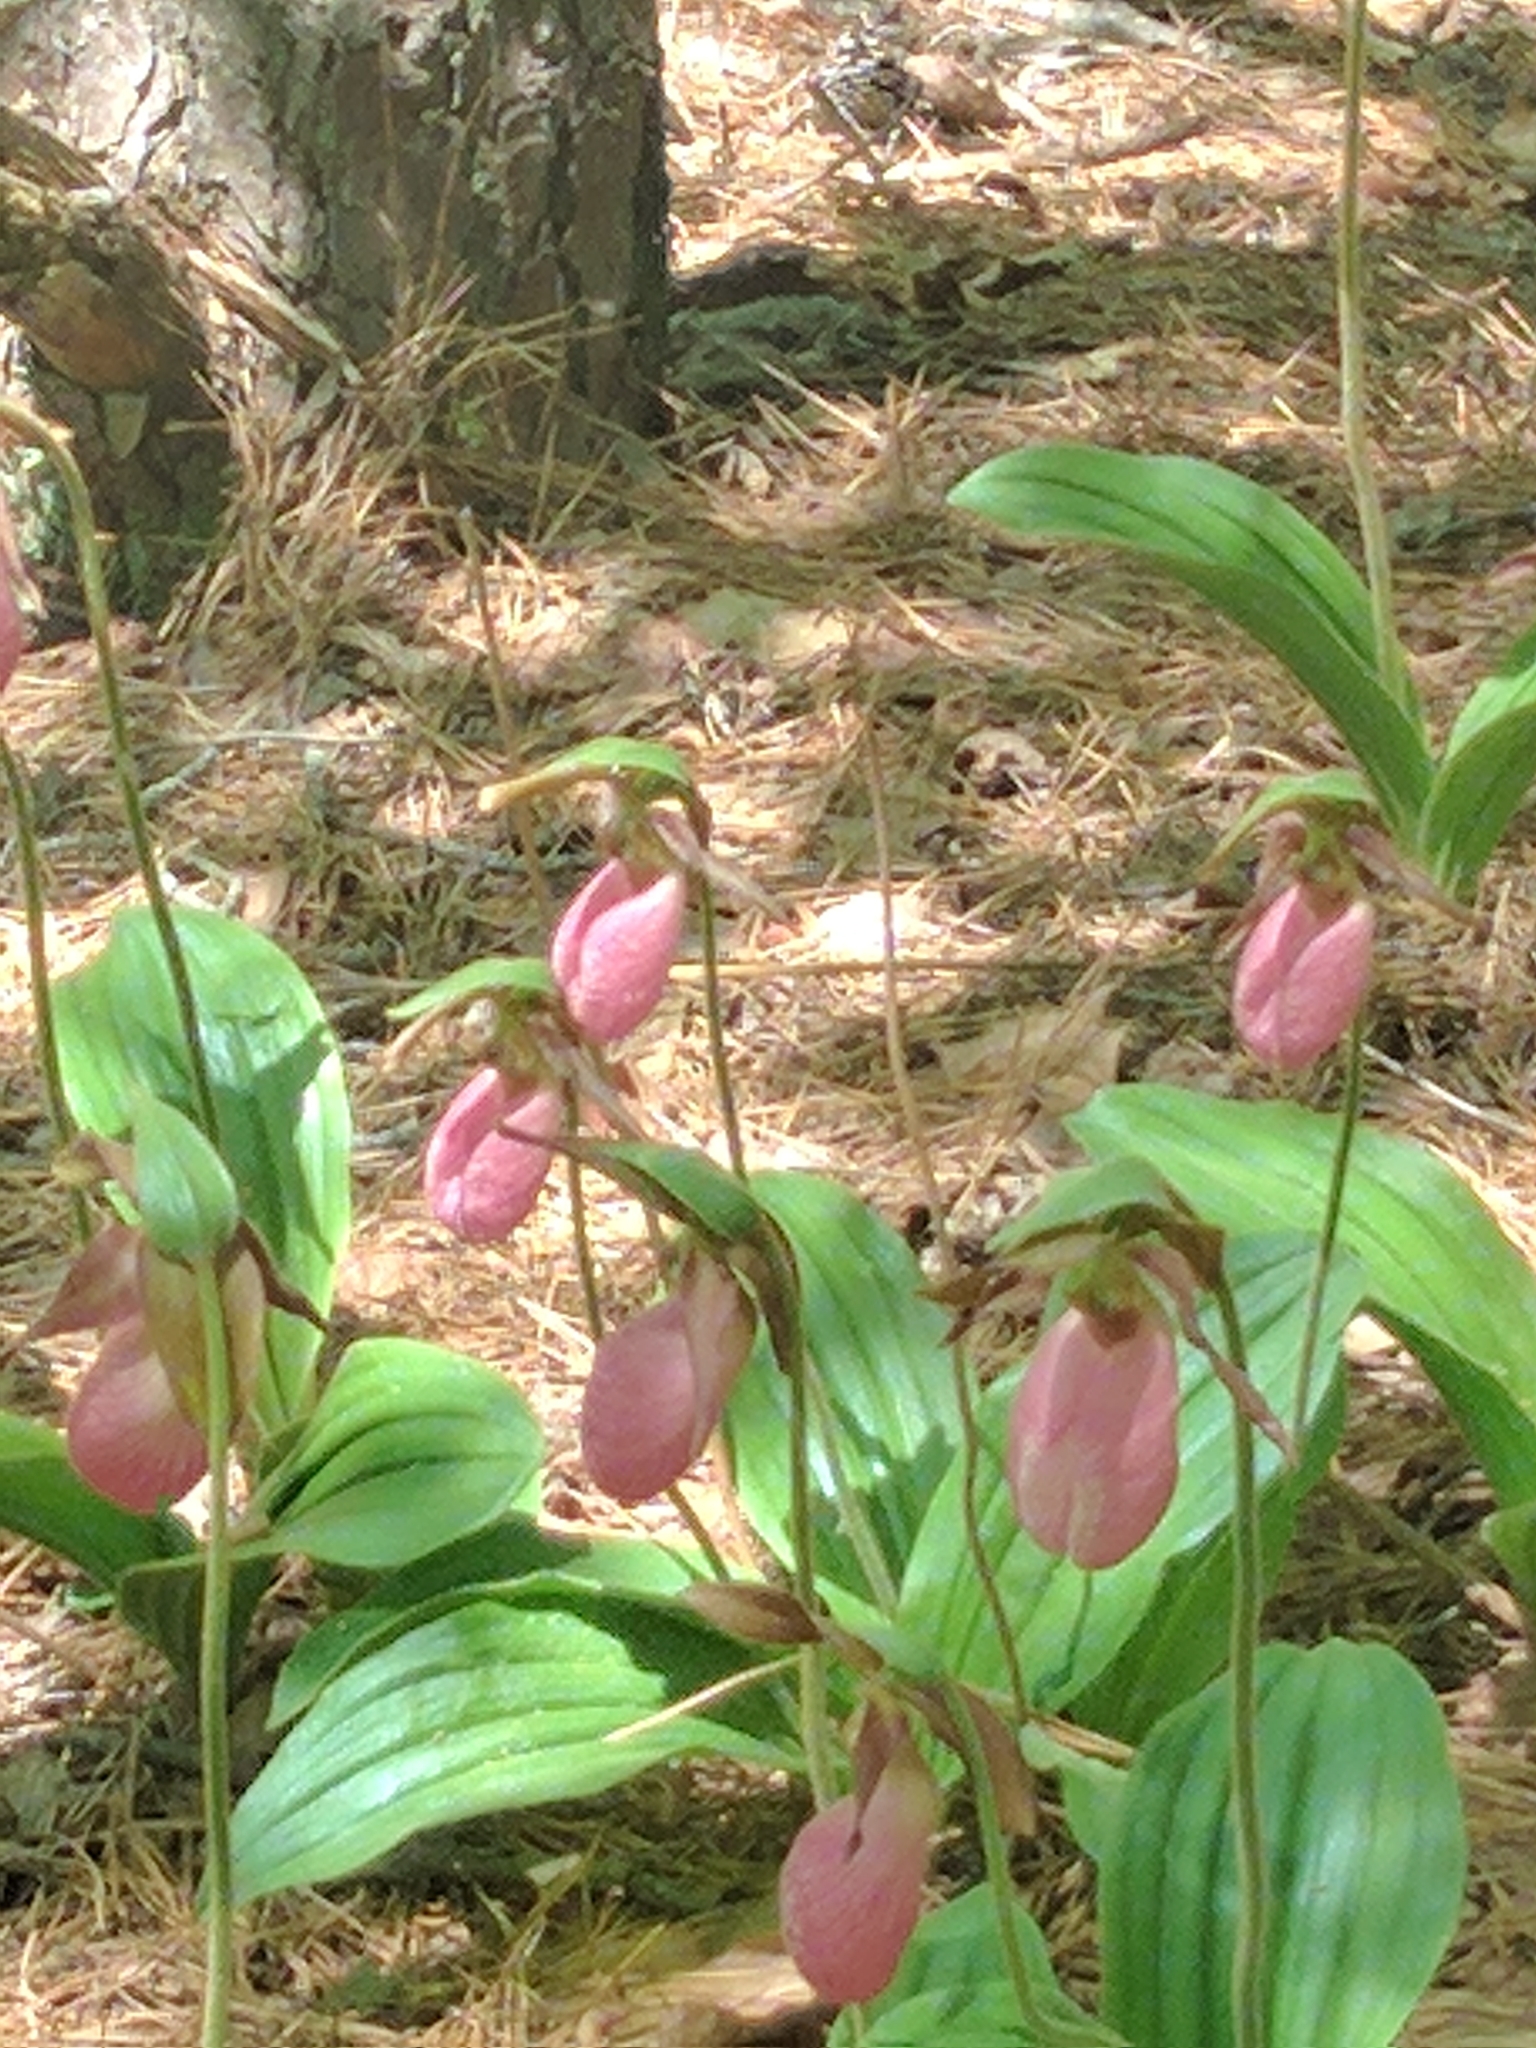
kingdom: Plantae
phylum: Tracheophyta
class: Liliopsida
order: Asparagales
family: Orchidaceae
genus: Cypripedium
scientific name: Cypripedium acaule
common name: Pink lady's-slipper
